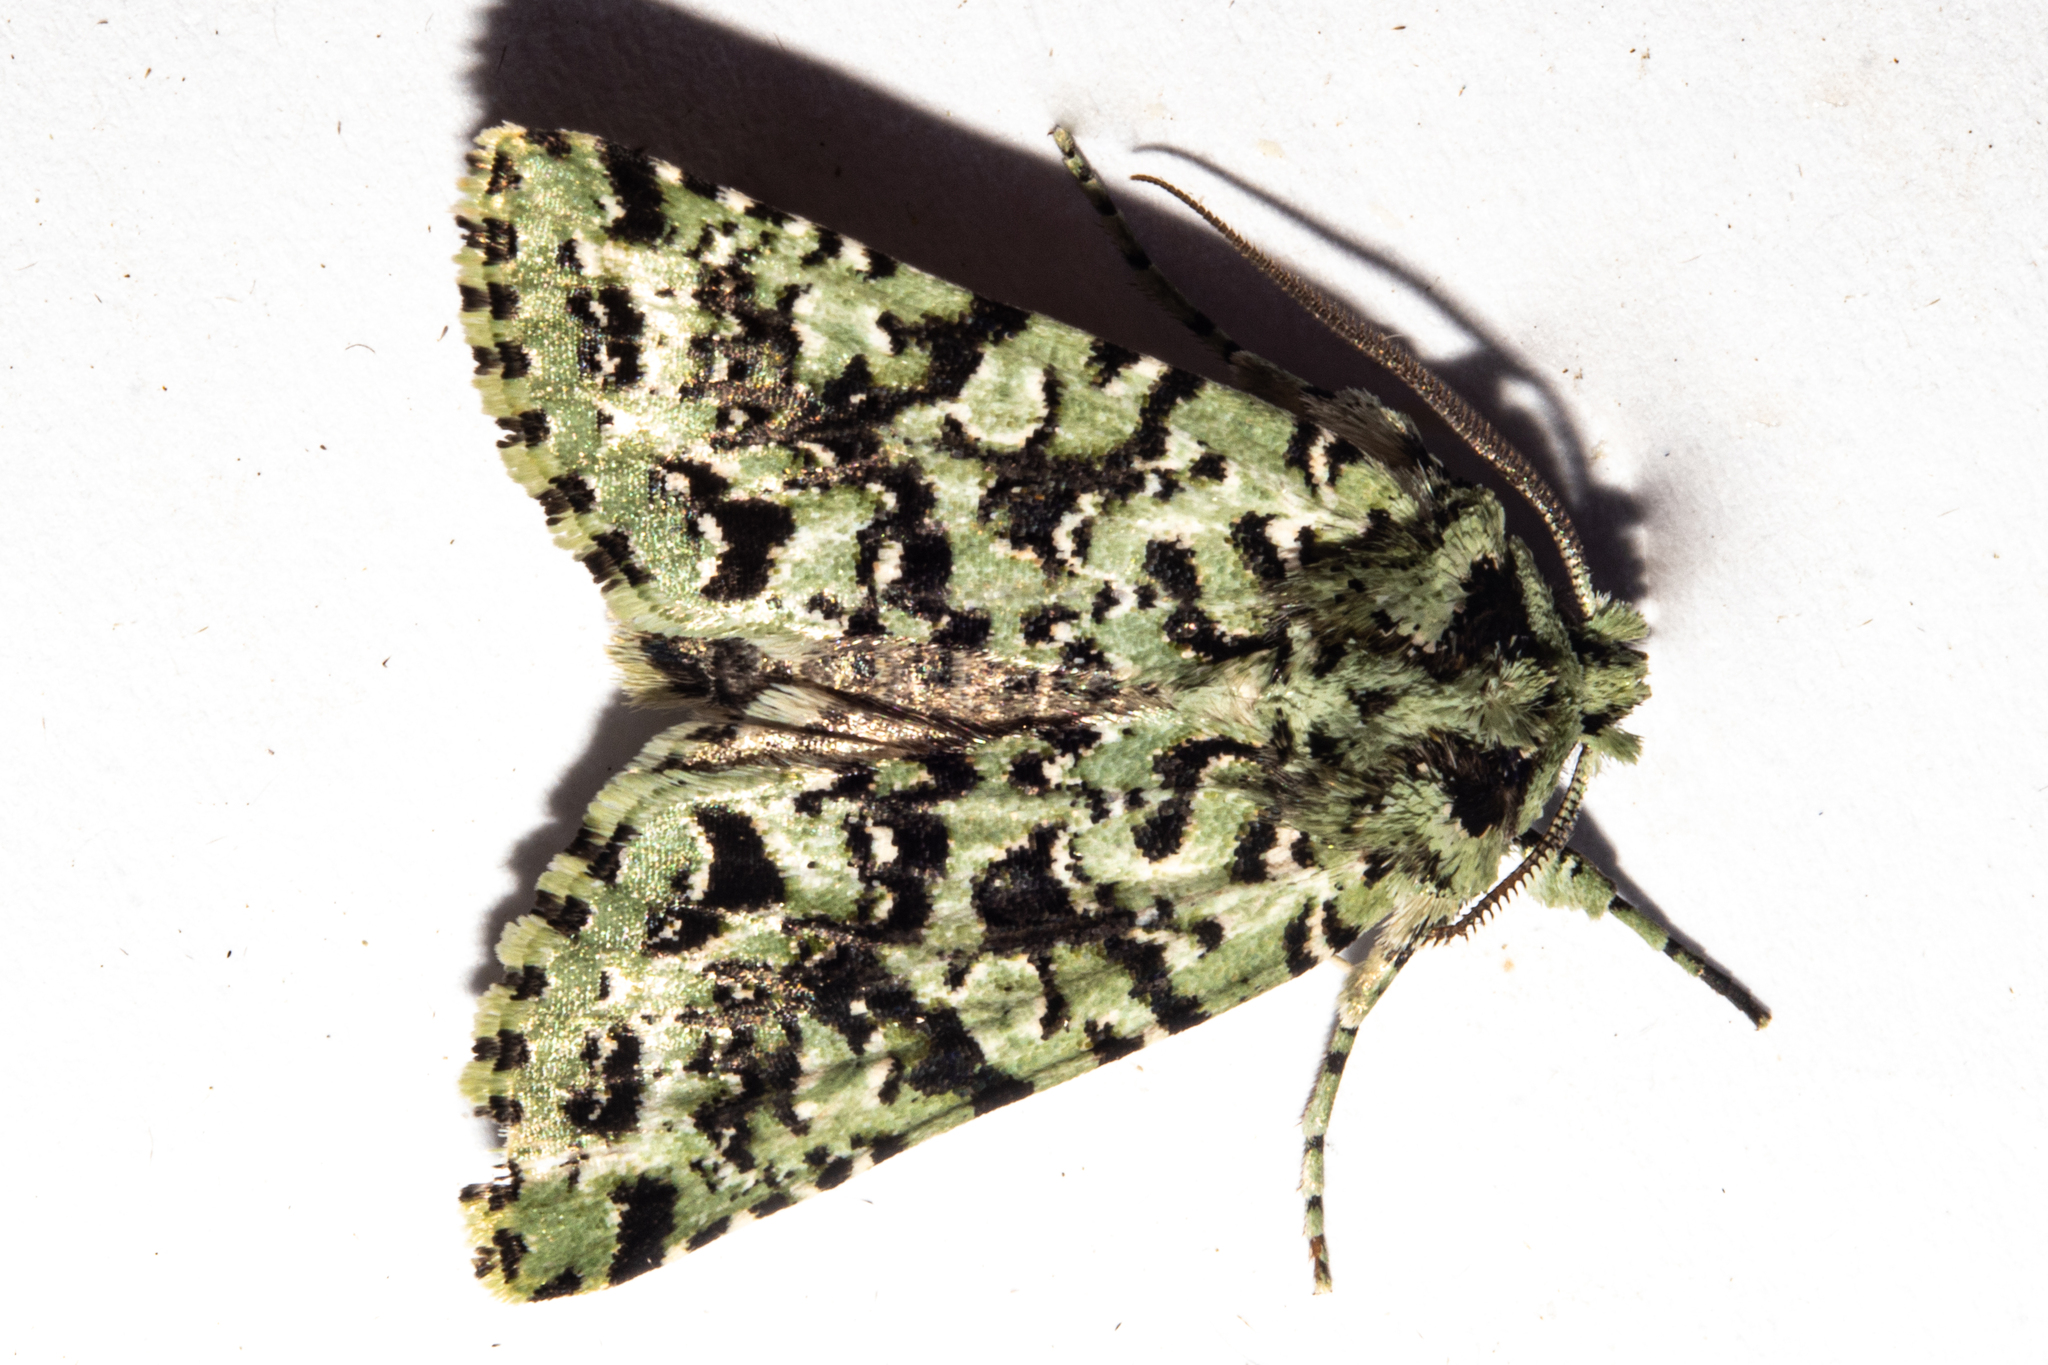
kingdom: Animalia
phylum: Arthropoda
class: Insecta
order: Lepidoptera
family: Noctuidae
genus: Meterana
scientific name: Meterana
